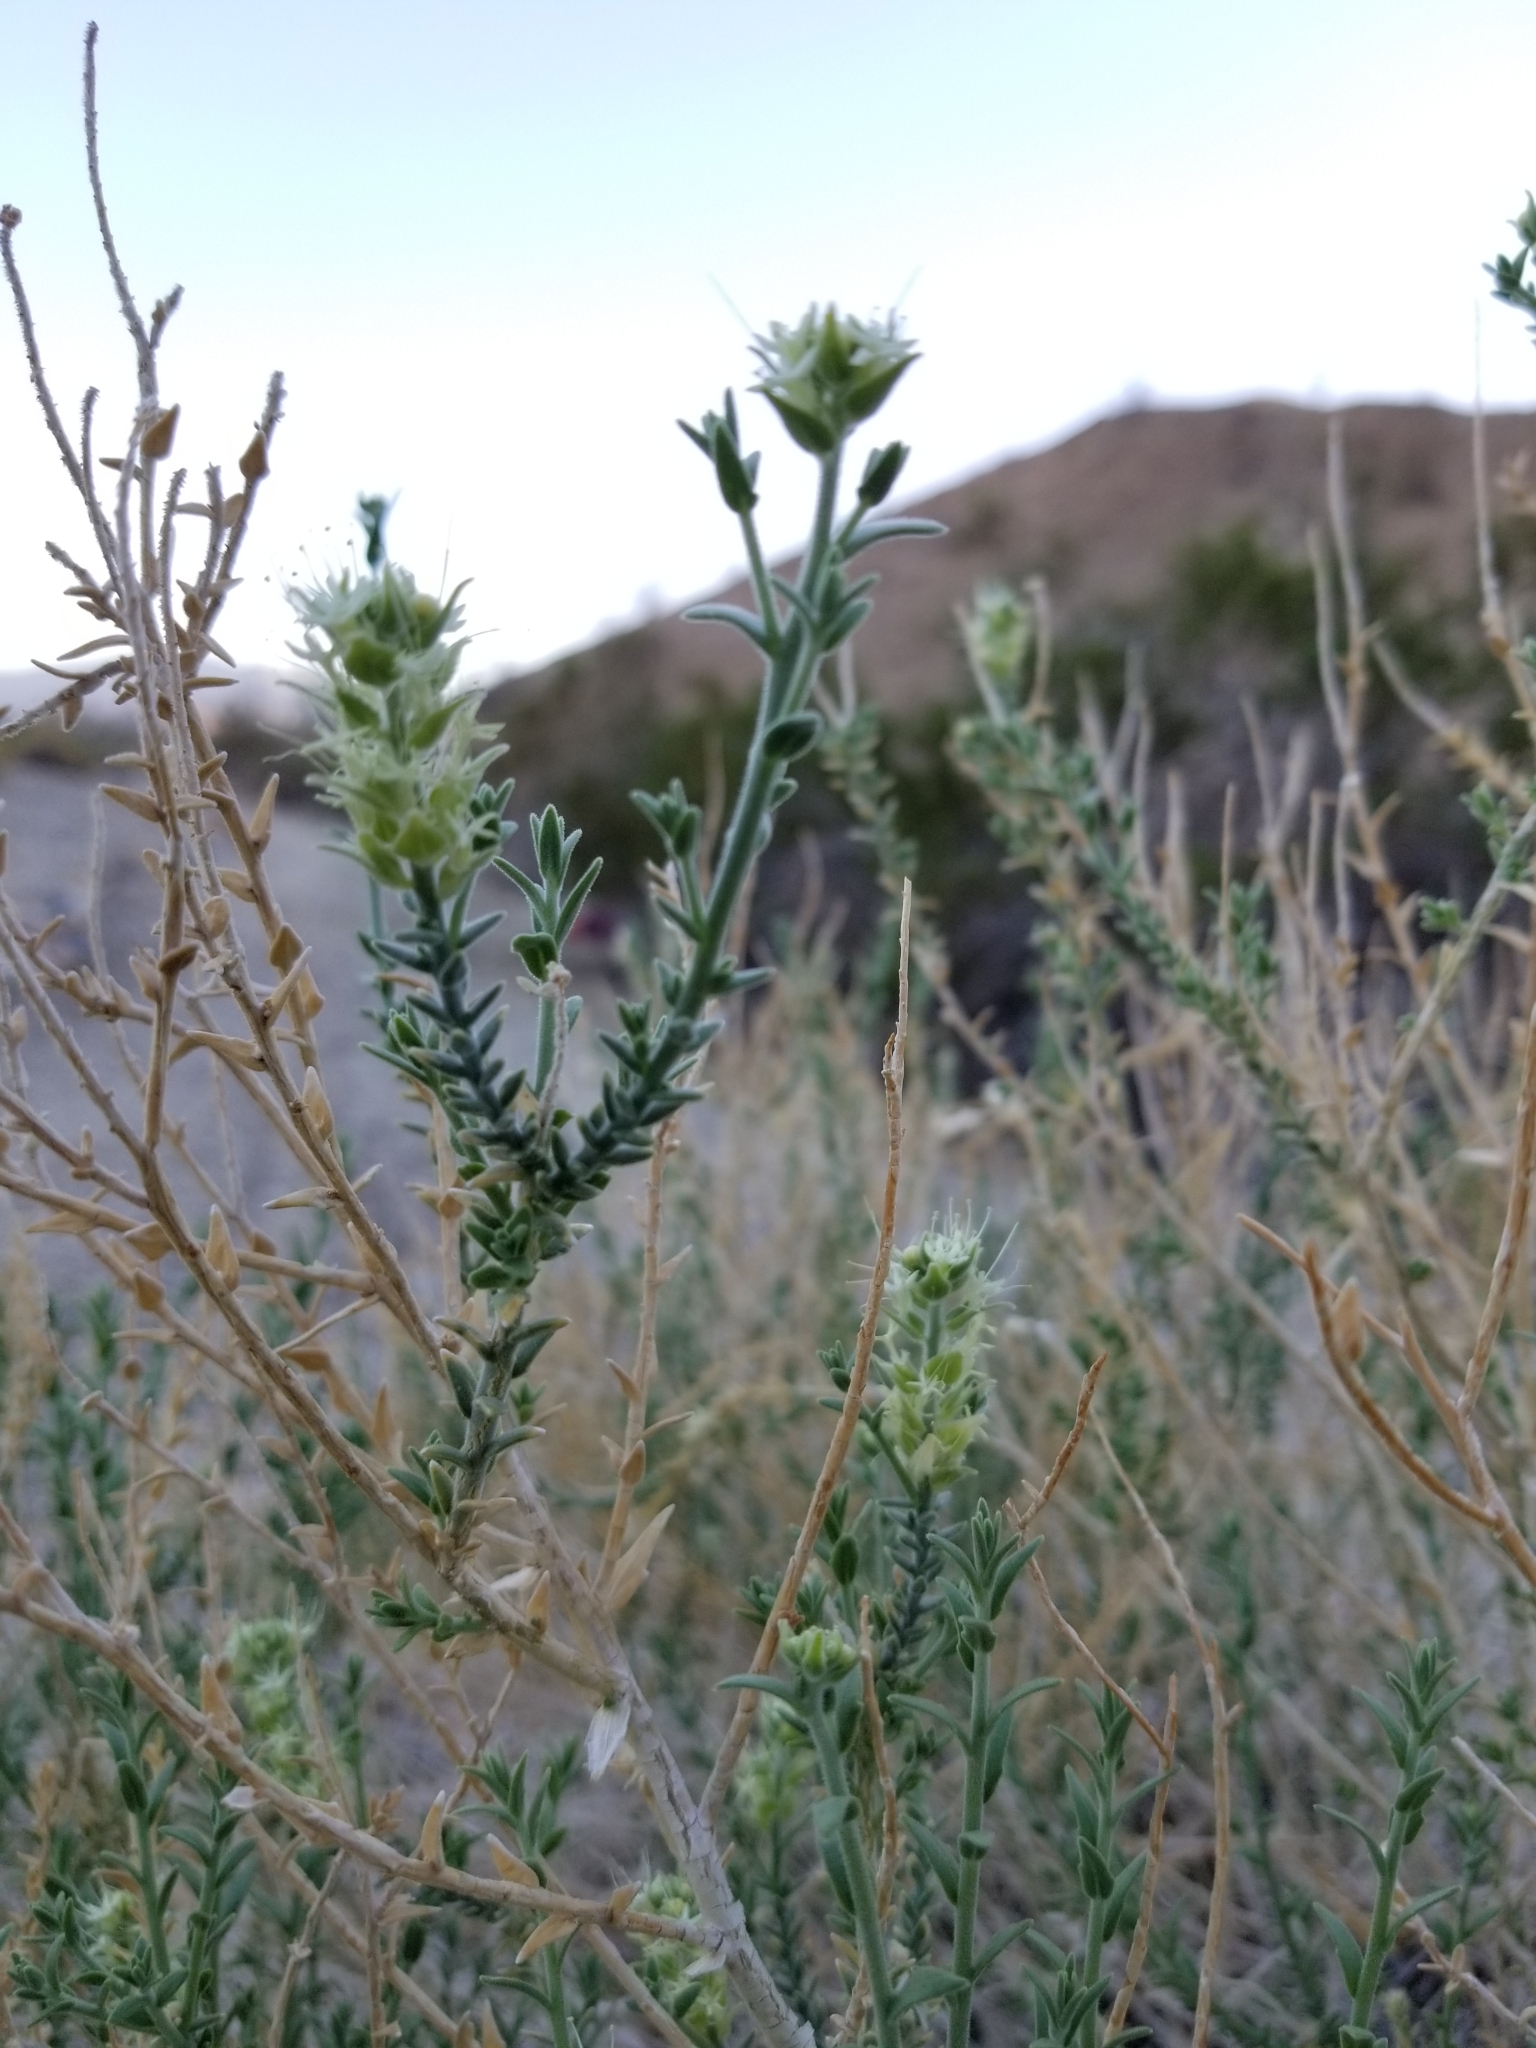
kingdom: Plantae
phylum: Tracheophyta
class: Magnoliopsida
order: Cornales
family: Loasaceae
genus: Petalonyx
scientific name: Petalonyx thurberi
